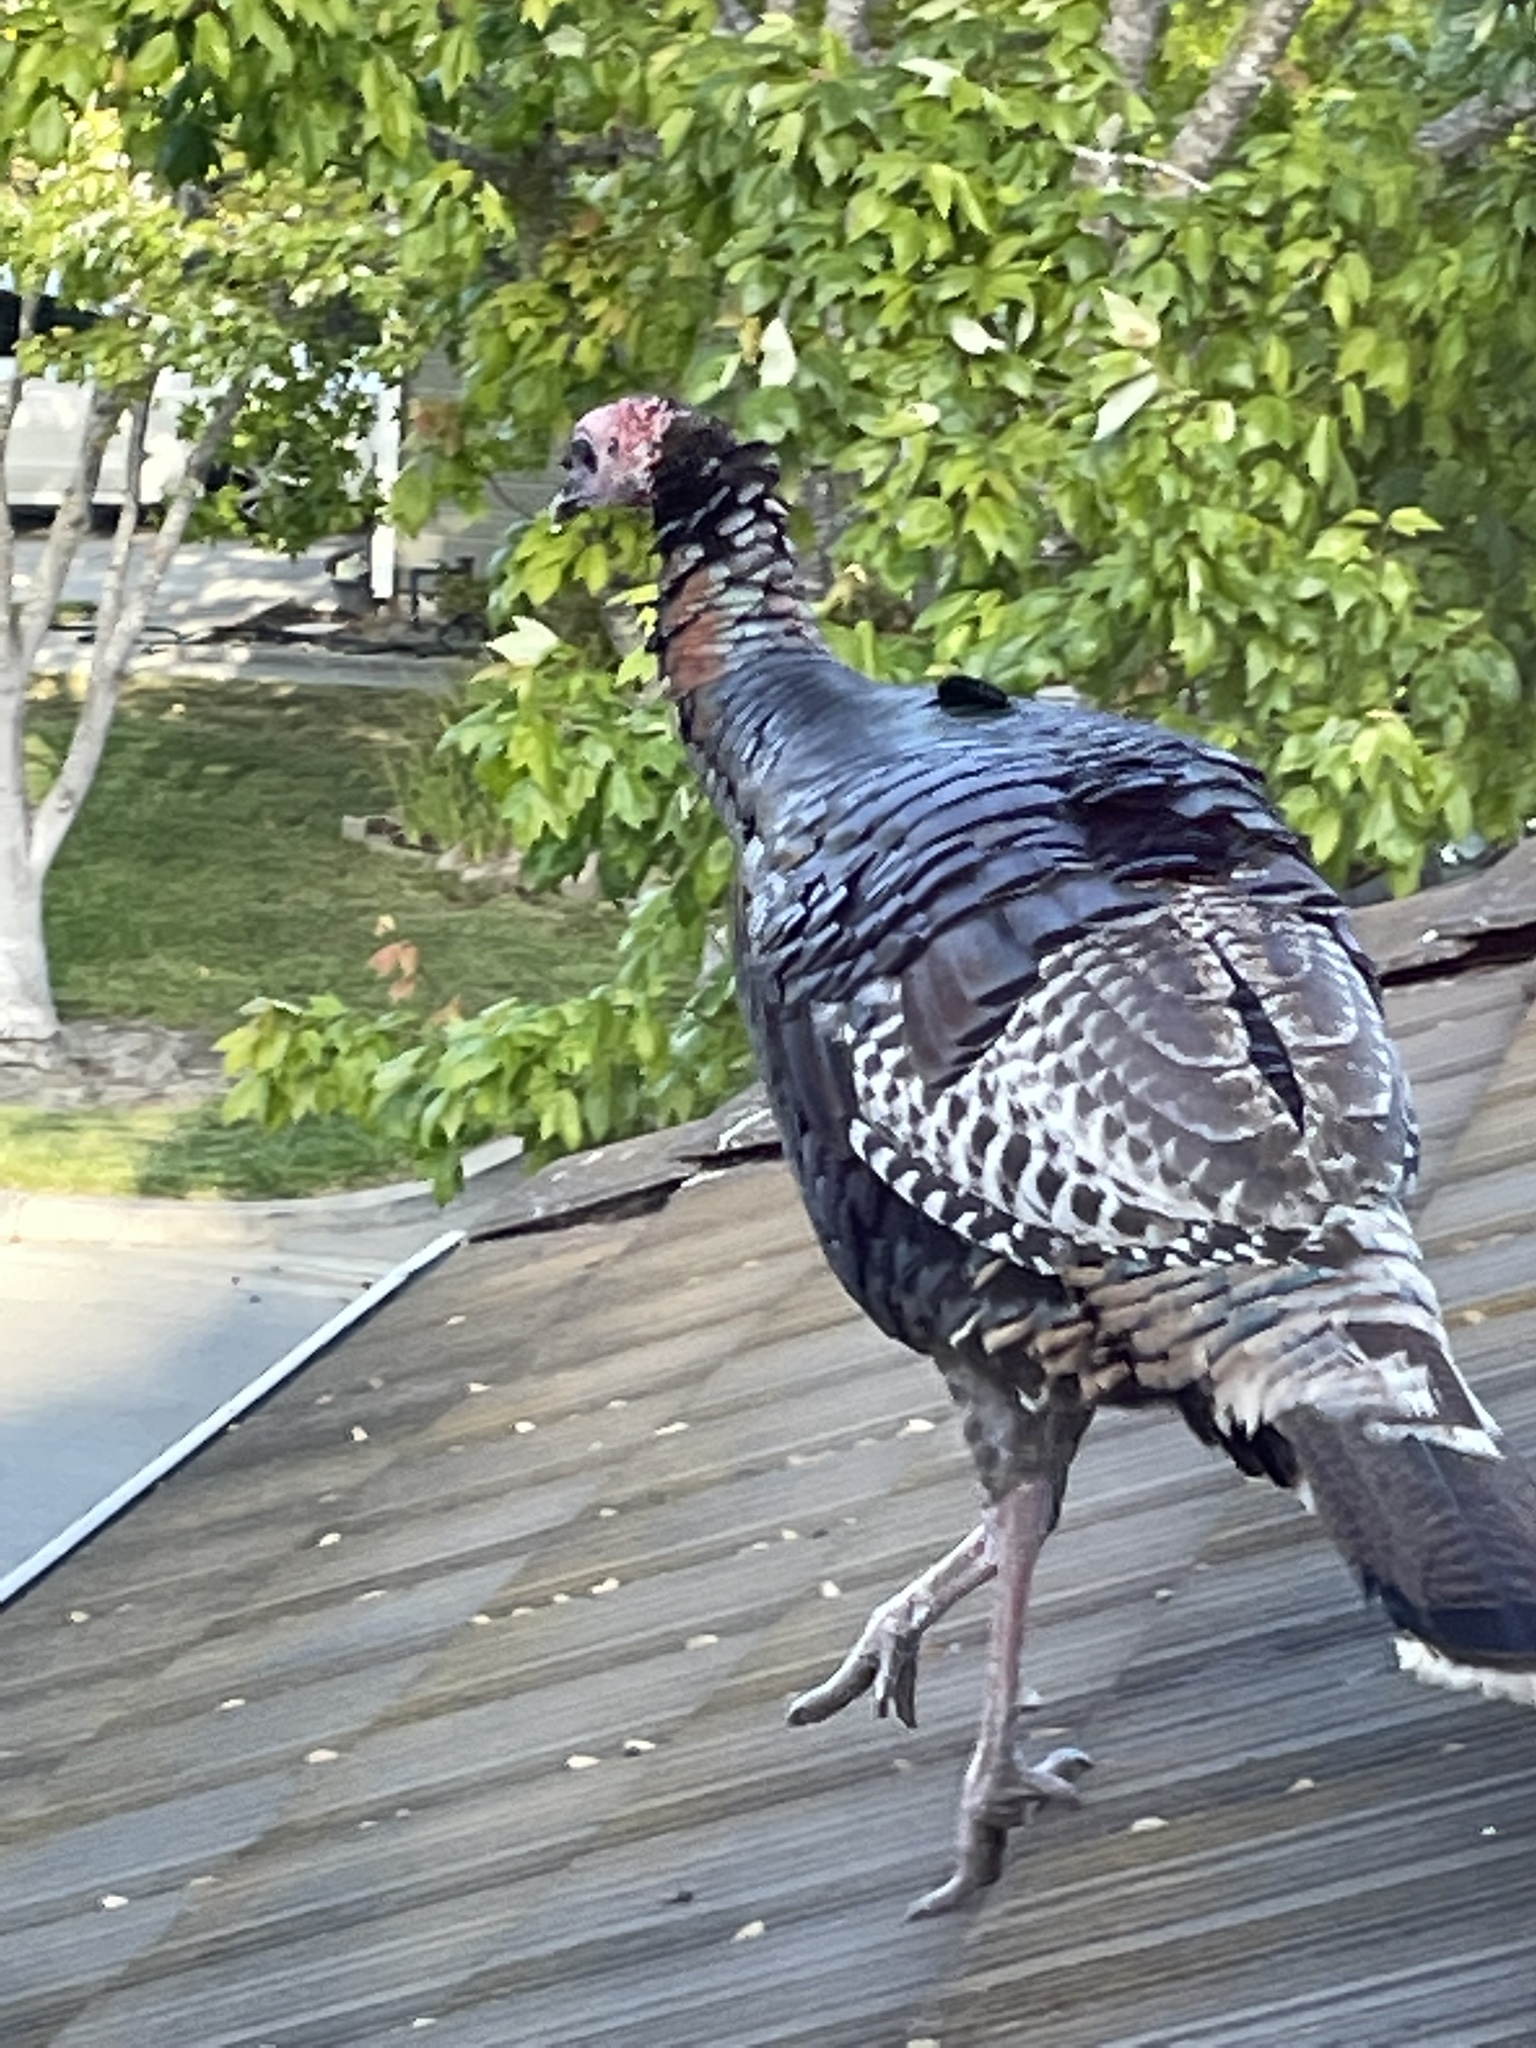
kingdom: Animalia
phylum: Chordata
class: Aves
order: Galliformes
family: Phasianidae
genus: Meleagris
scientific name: Meleagris gallopavo
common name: Wild turkey
